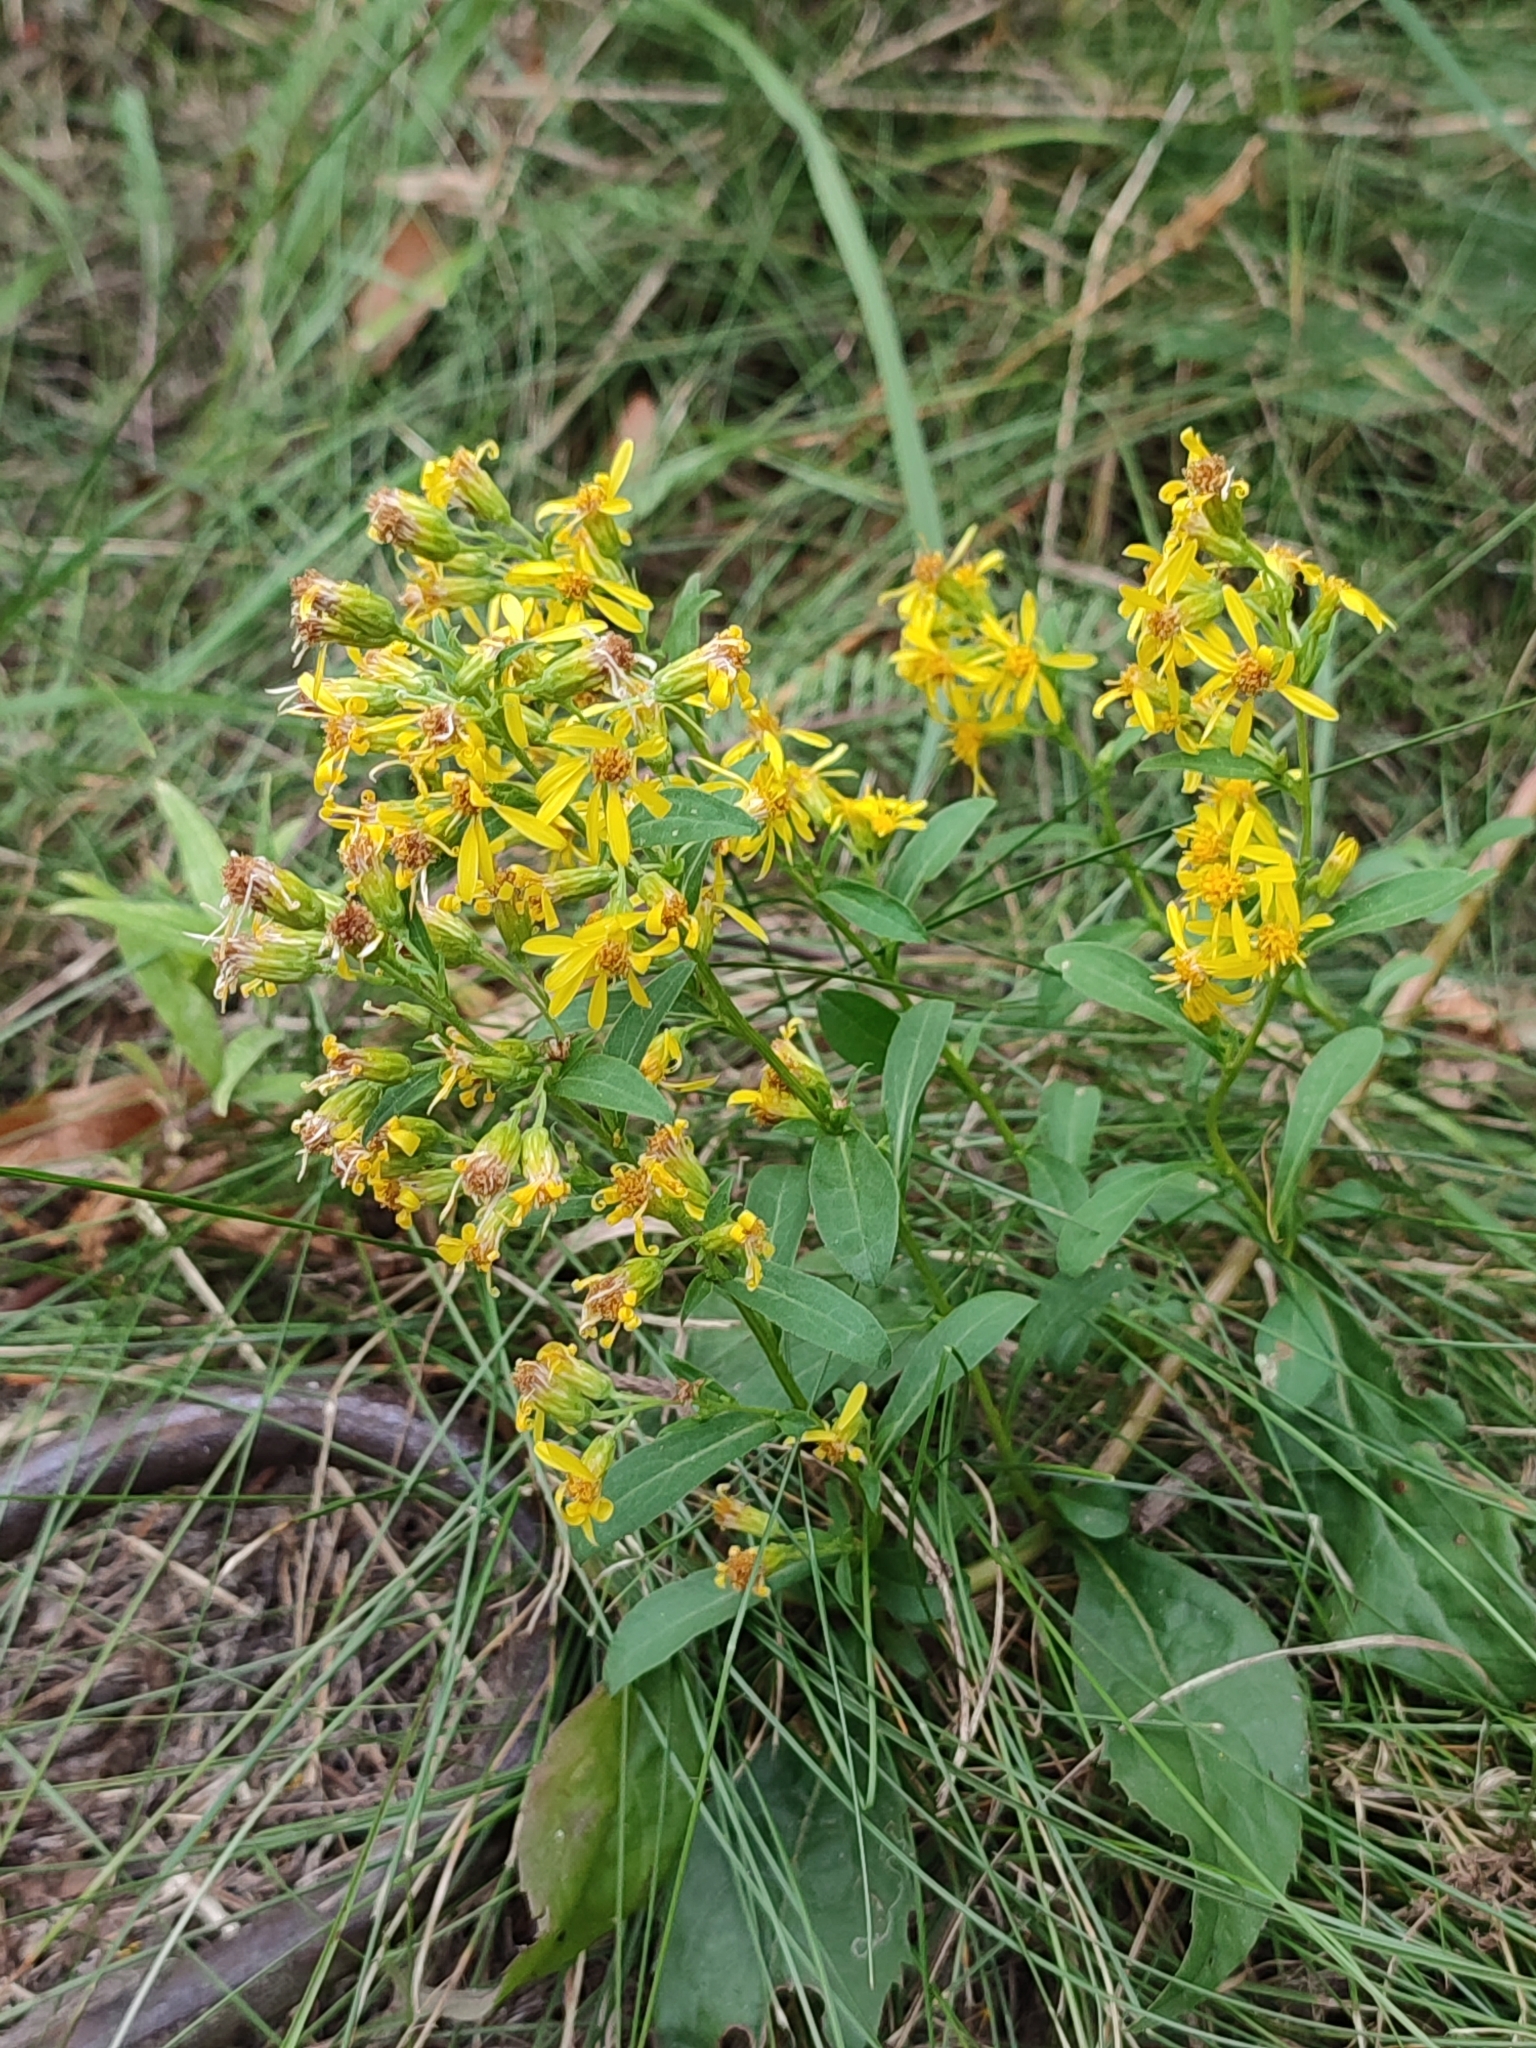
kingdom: Plantae
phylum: Tracheophyta
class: Magnoliopsida
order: Asterales
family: Asteraceae
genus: Solidago
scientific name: Solidago virgaurea
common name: Goldenrod
